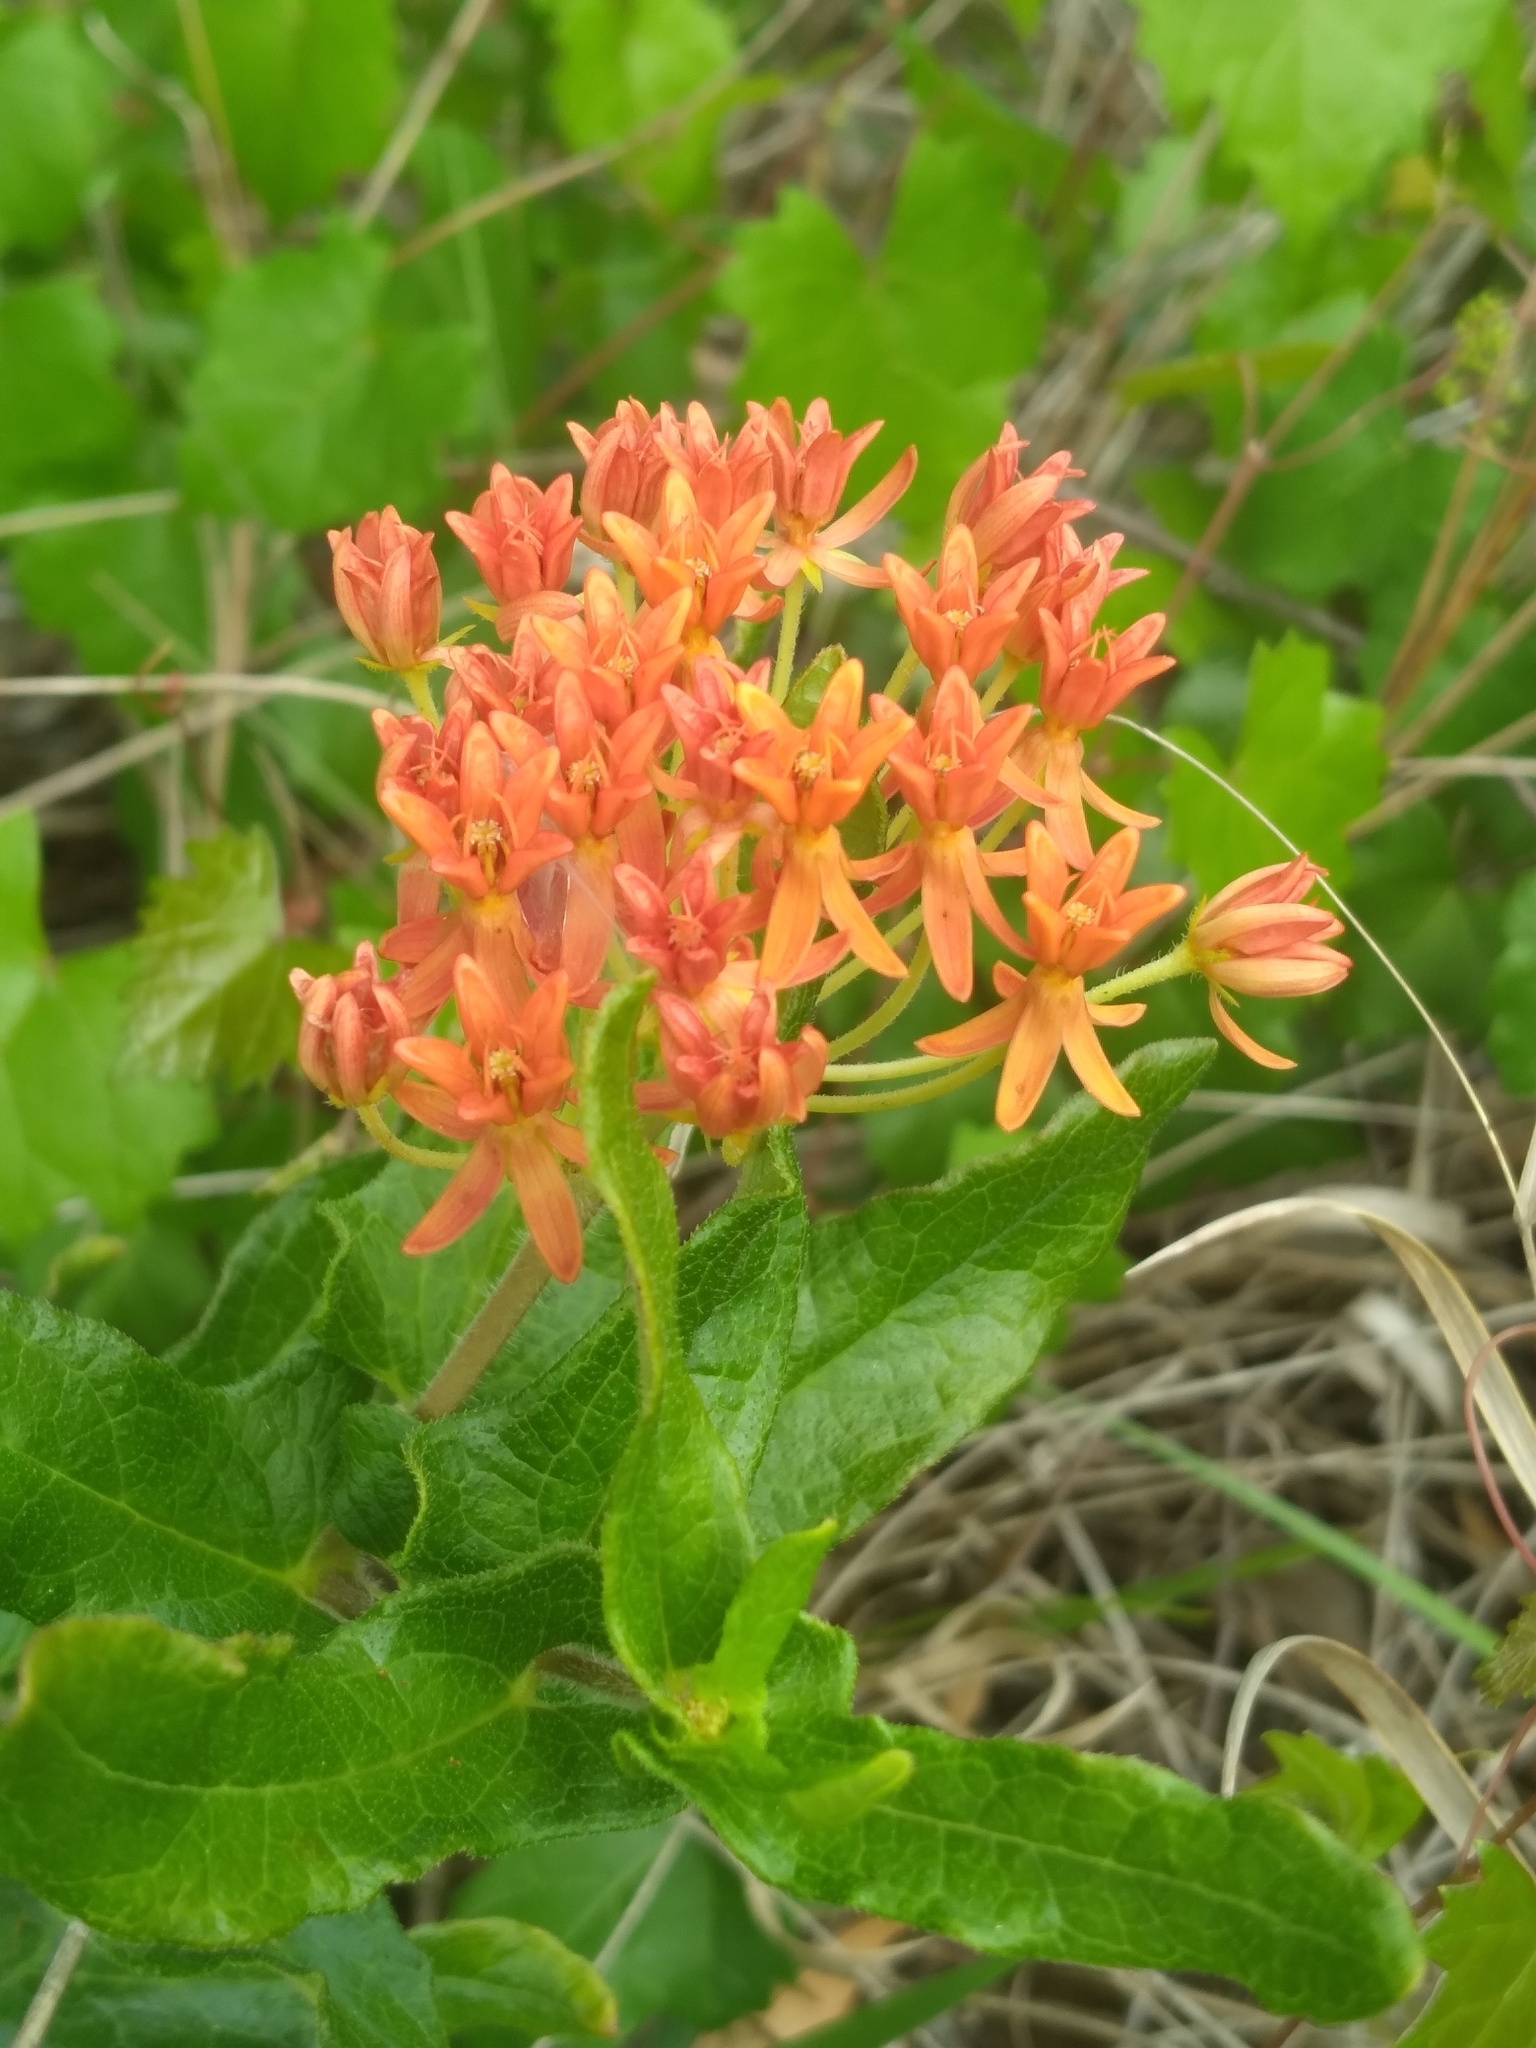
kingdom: Plantae
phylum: Tracheophyta
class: Magnoliopsida
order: Gentianales
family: Apocynaceae
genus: Asclepias
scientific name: Asclepias tuberosa
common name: Butterfly milkweed
